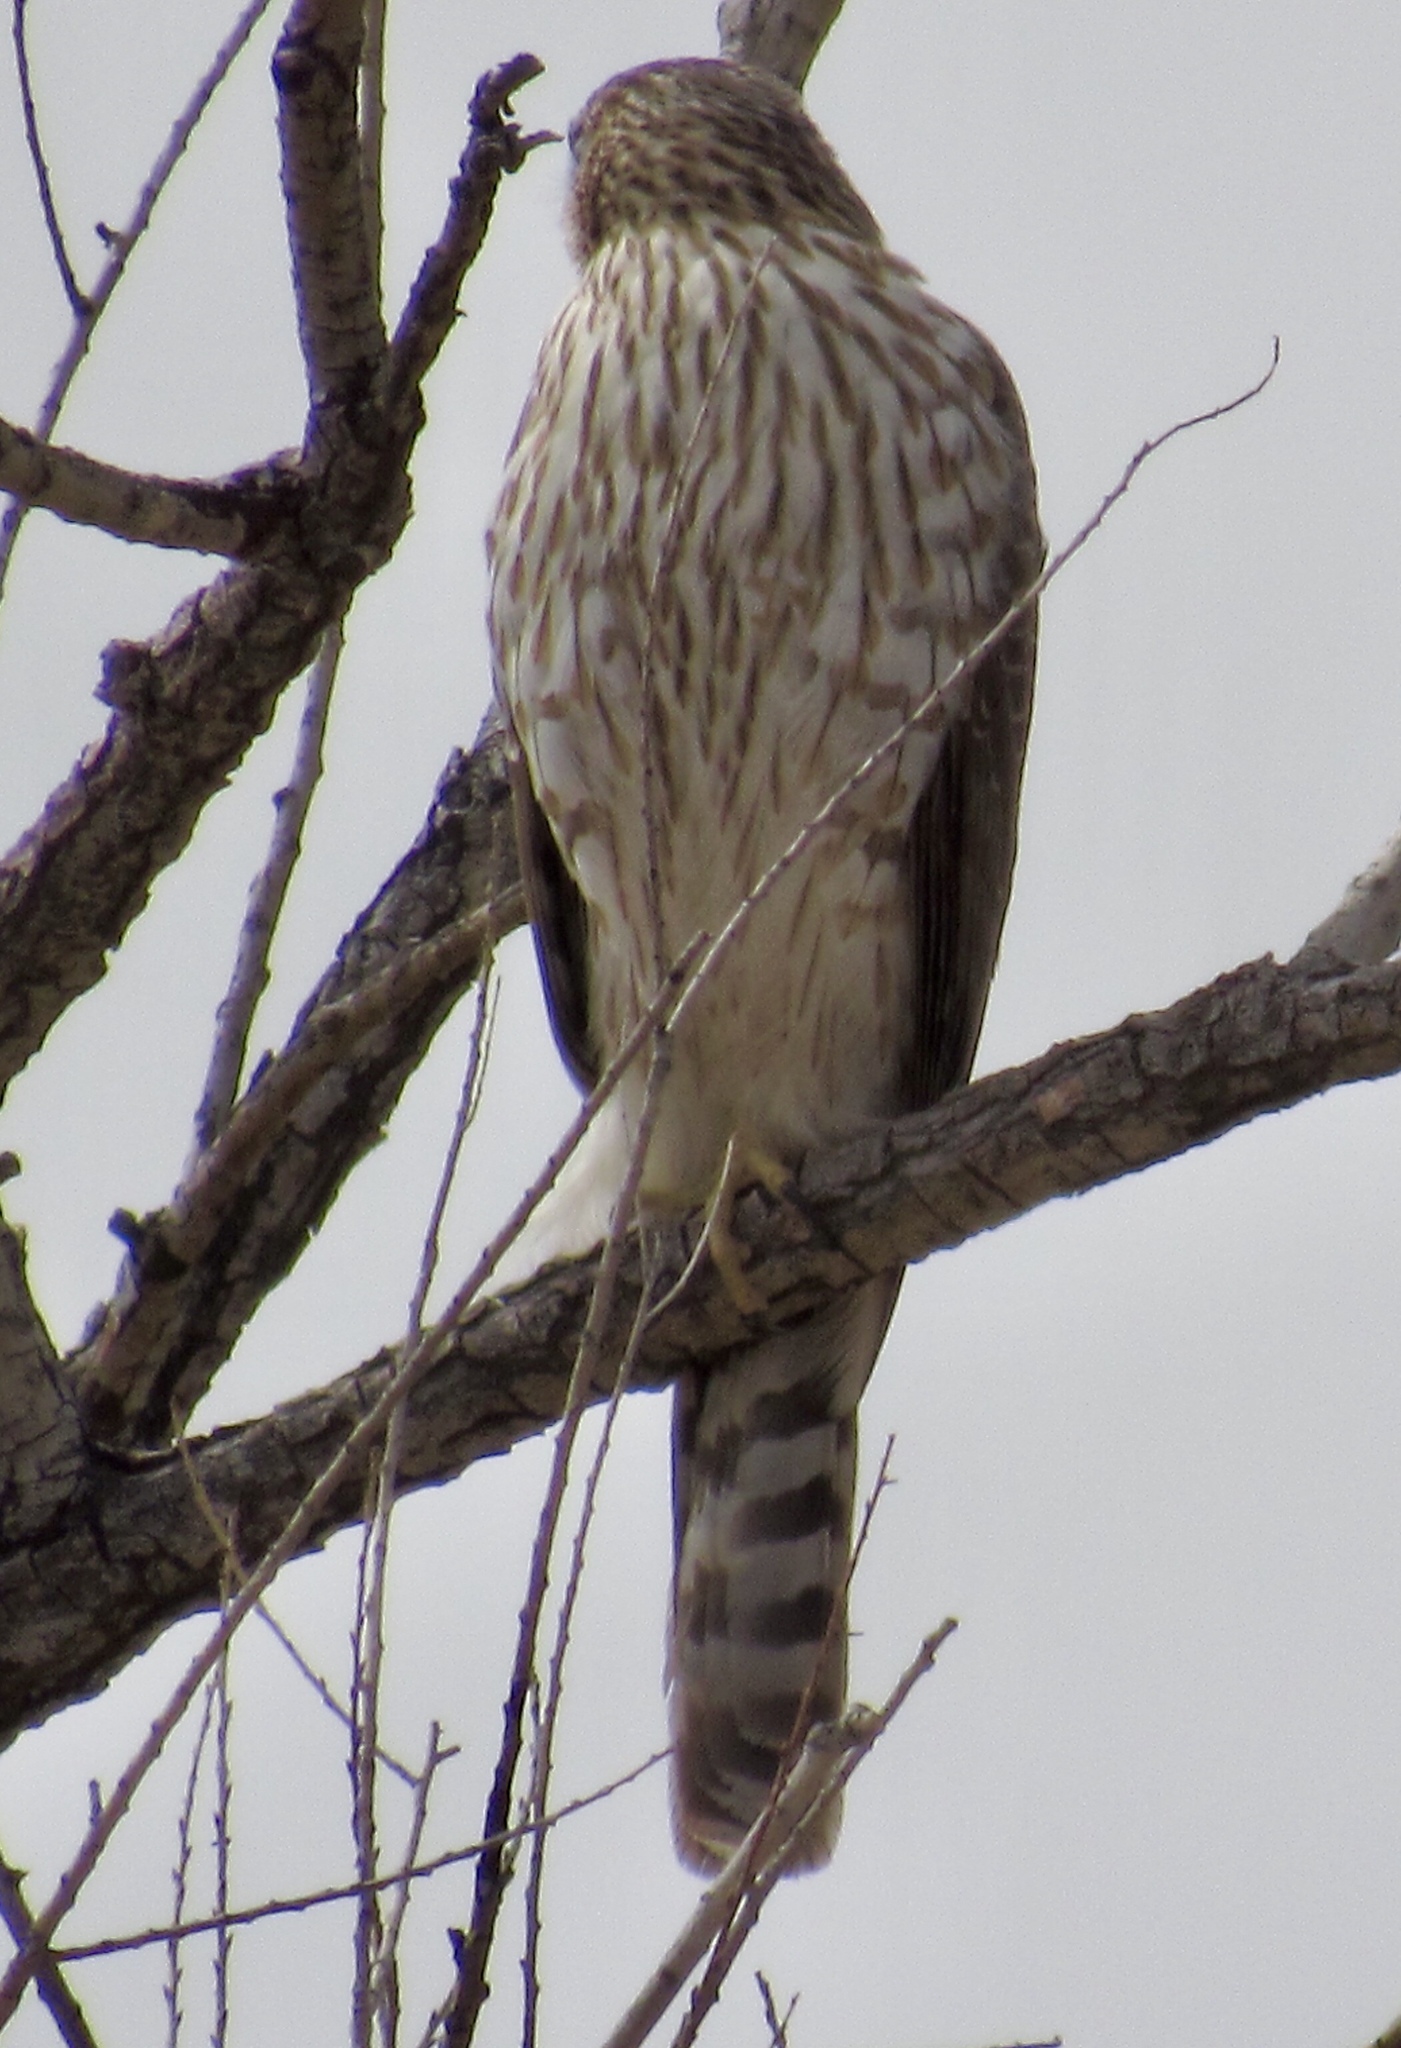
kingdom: Animalia
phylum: Chordata
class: Aves
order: Accipitriformes
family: Accipitridae
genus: Accipiter
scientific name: Accipiter cooperii
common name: Cooper's hawk
